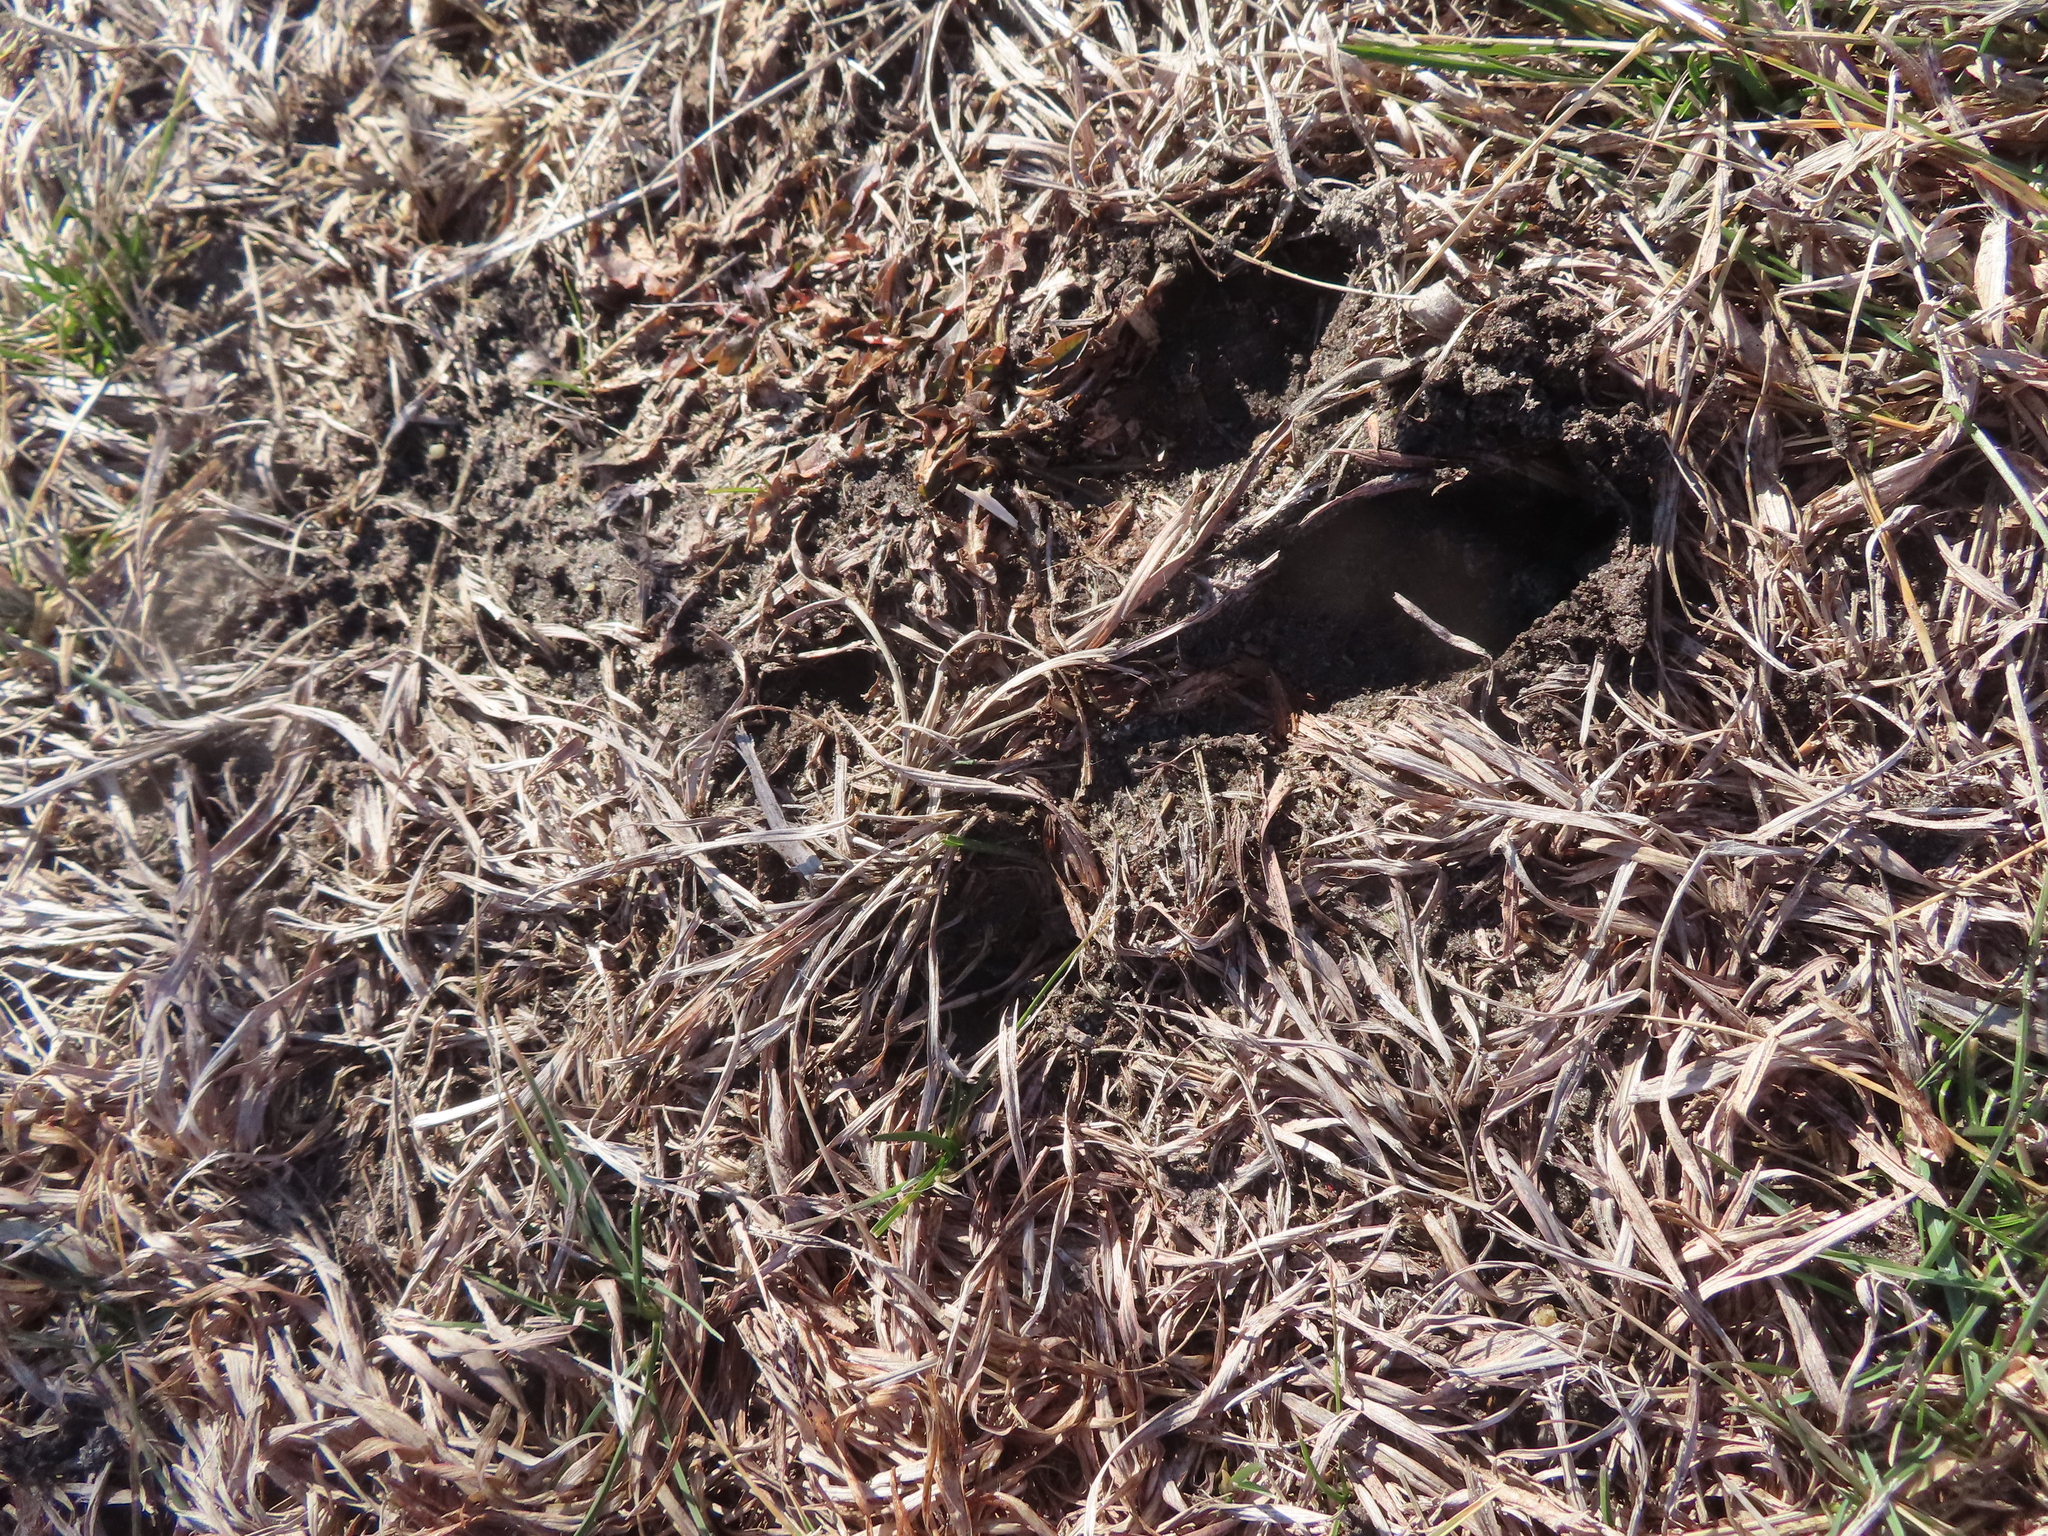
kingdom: Animalia
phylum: Chordata
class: Mammalia
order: Artiodactyla
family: Cervidae
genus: Odocoileus
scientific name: Odocoileus virginianus
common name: White-tailed deer
